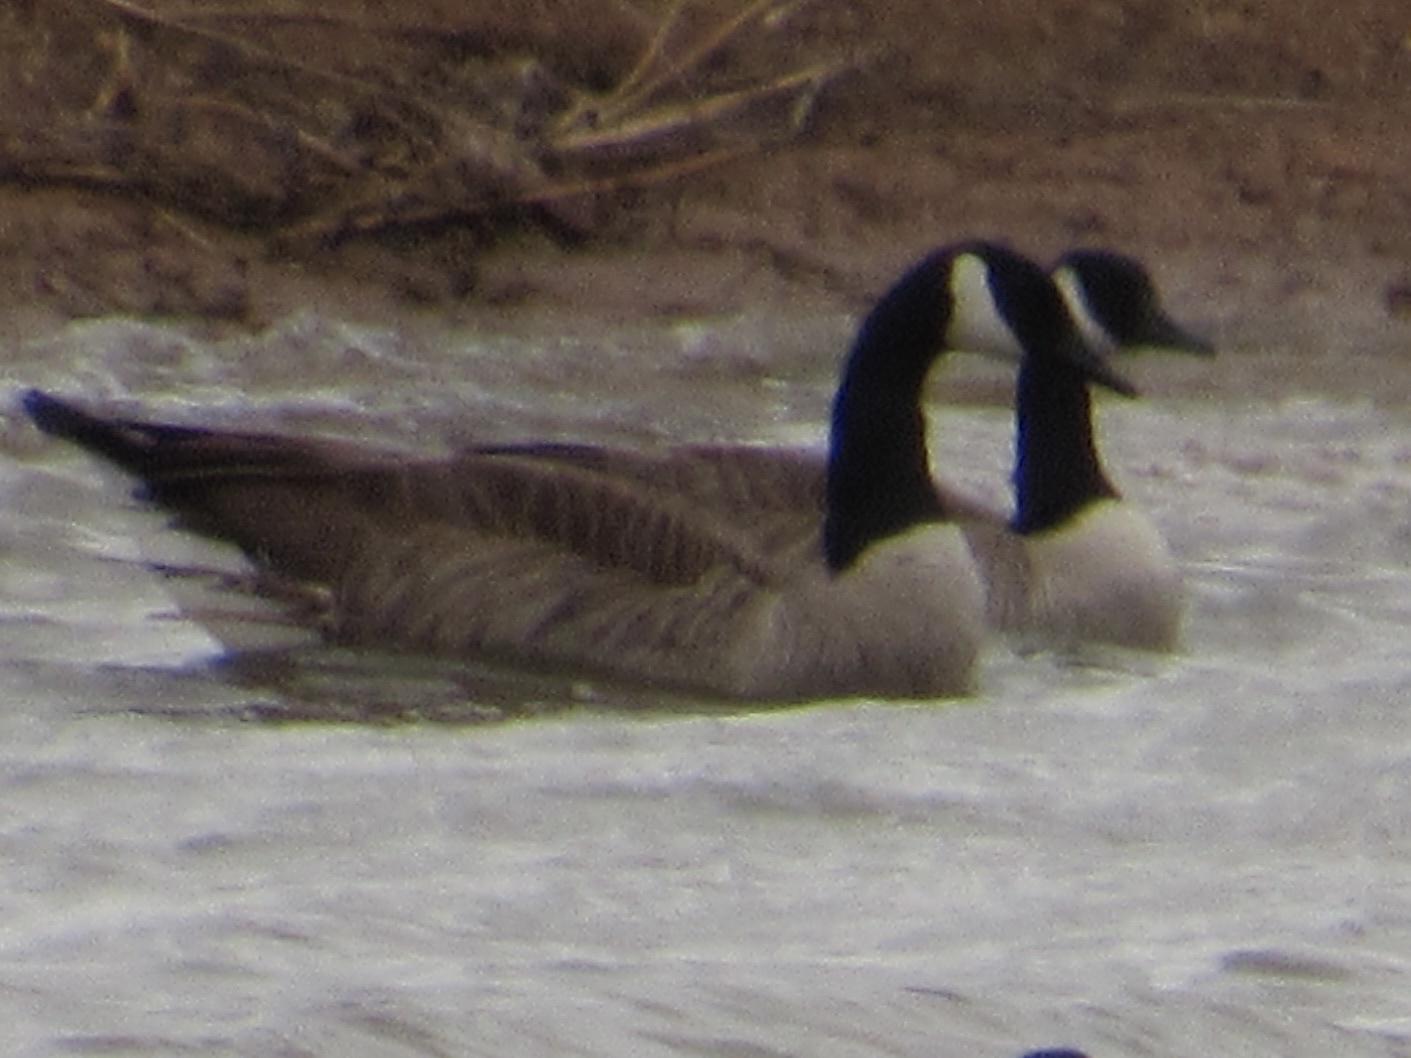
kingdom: Animalia
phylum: Chordata
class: Aves
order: Anseriformes
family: Anatidae
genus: Branta
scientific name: Branta canadensis
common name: Canada goose
